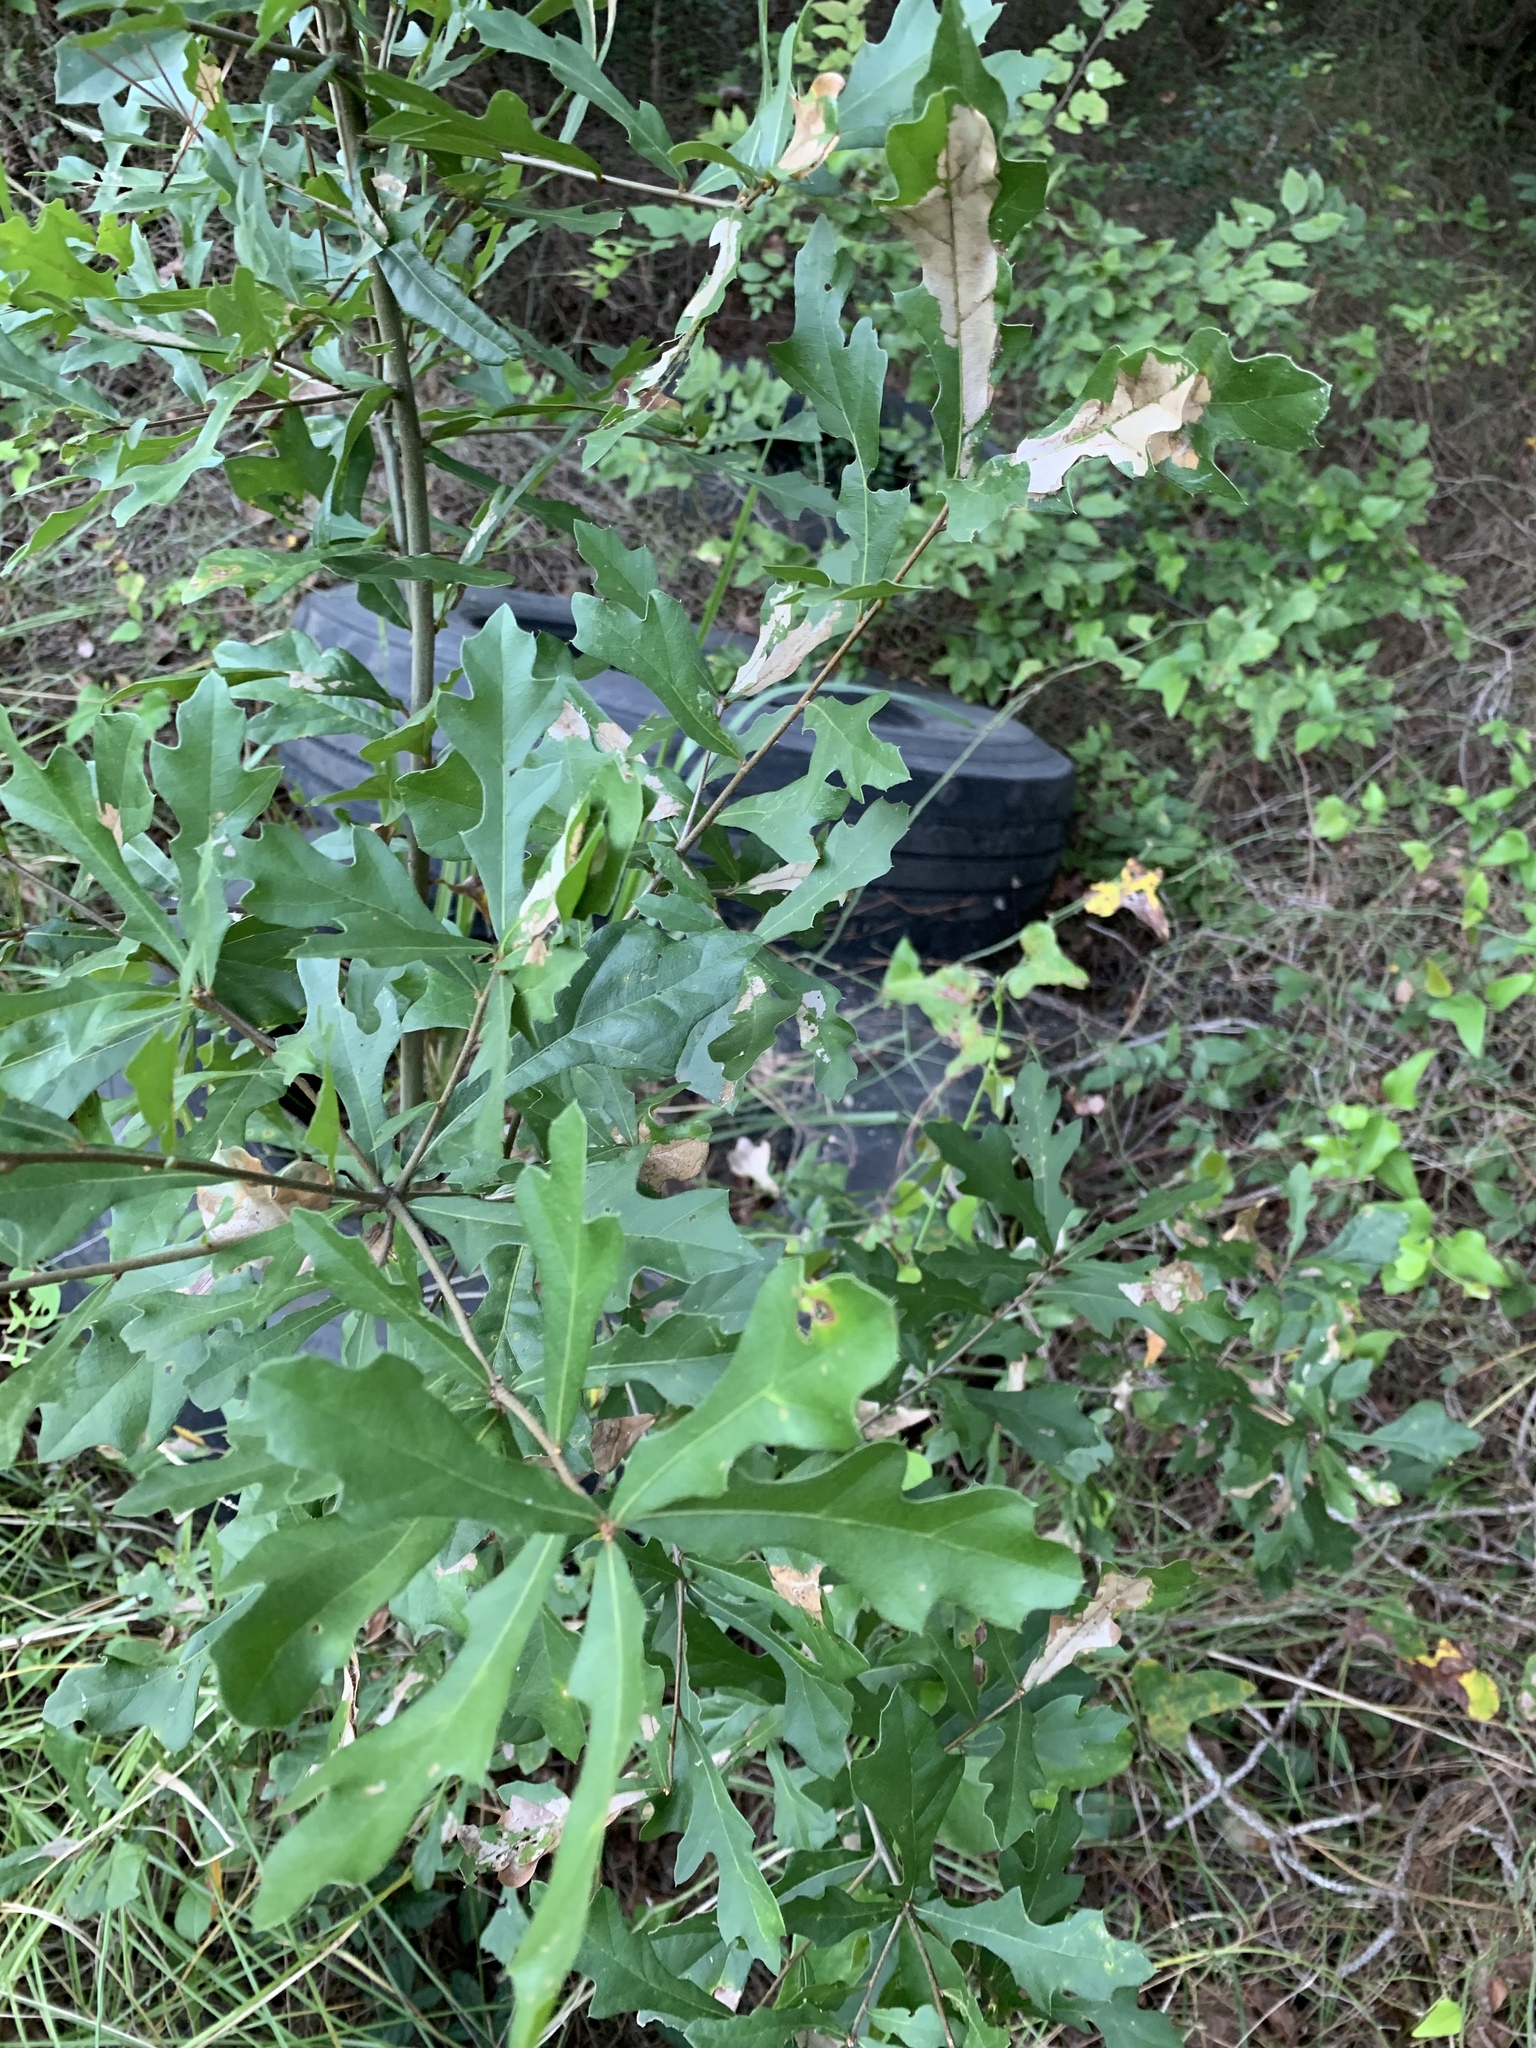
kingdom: Plantae
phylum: Tracheophyta
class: Magnoliopsida
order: Fagales
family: Fagaceae
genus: Quercus
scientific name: Quercus nigra
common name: Water oak
